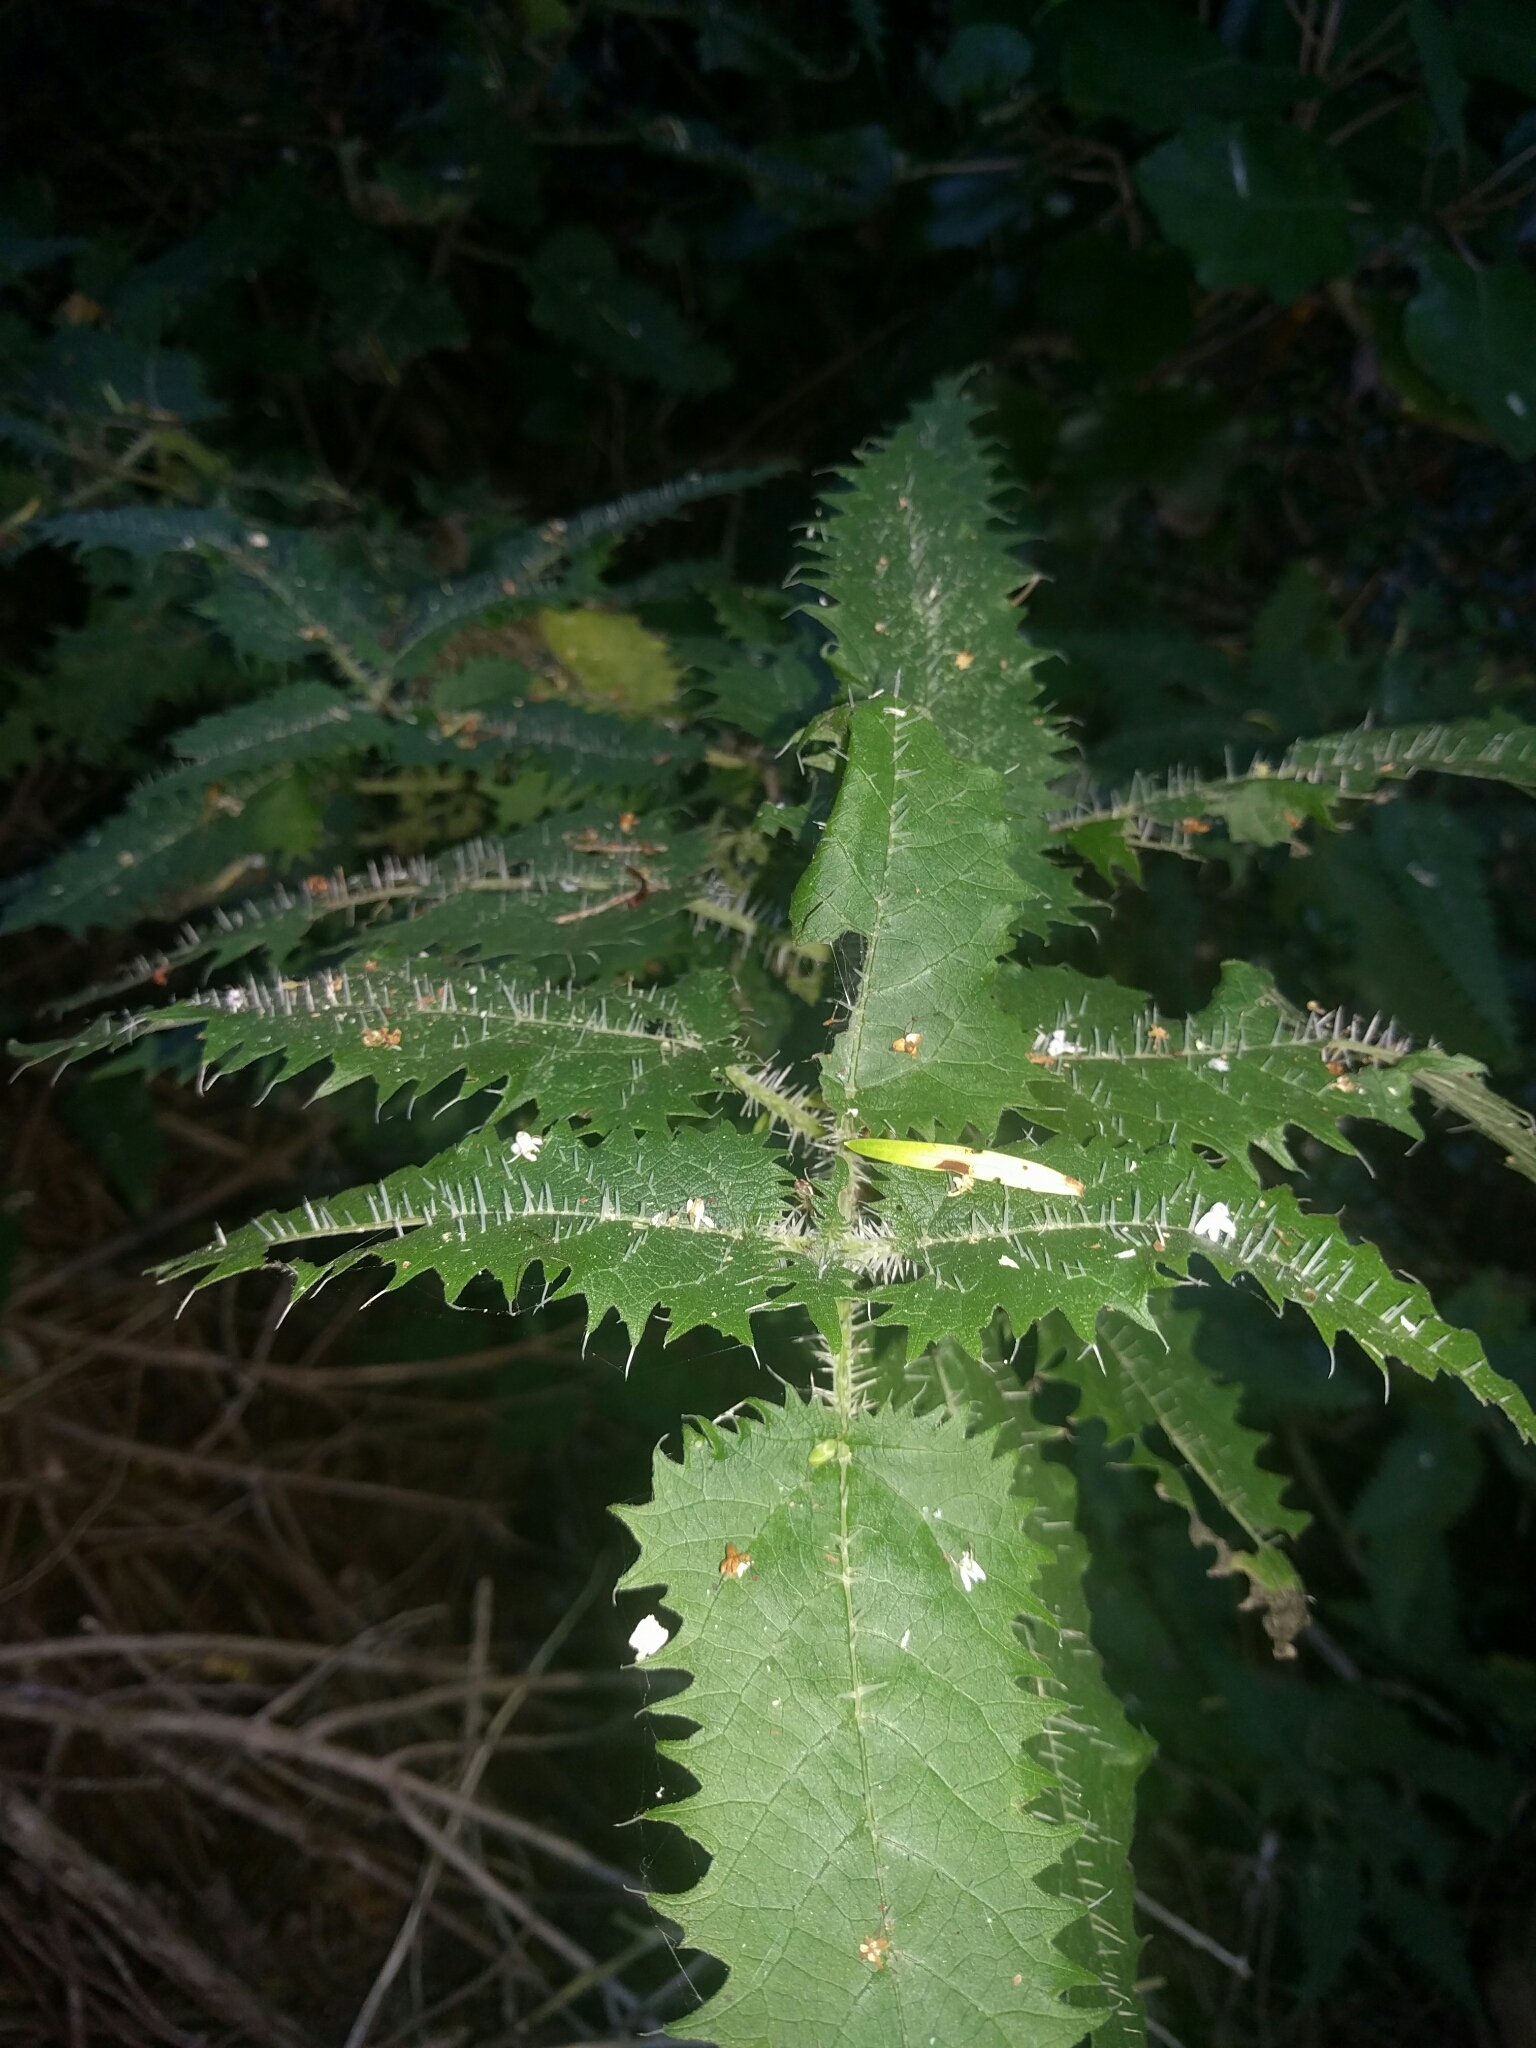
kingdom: Plantae
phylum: Tracheophyta
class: Magnoliopsida
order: Rosales
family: Urticaceae
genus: Urtica
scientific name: Urtica ferox
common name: Tree nettle
